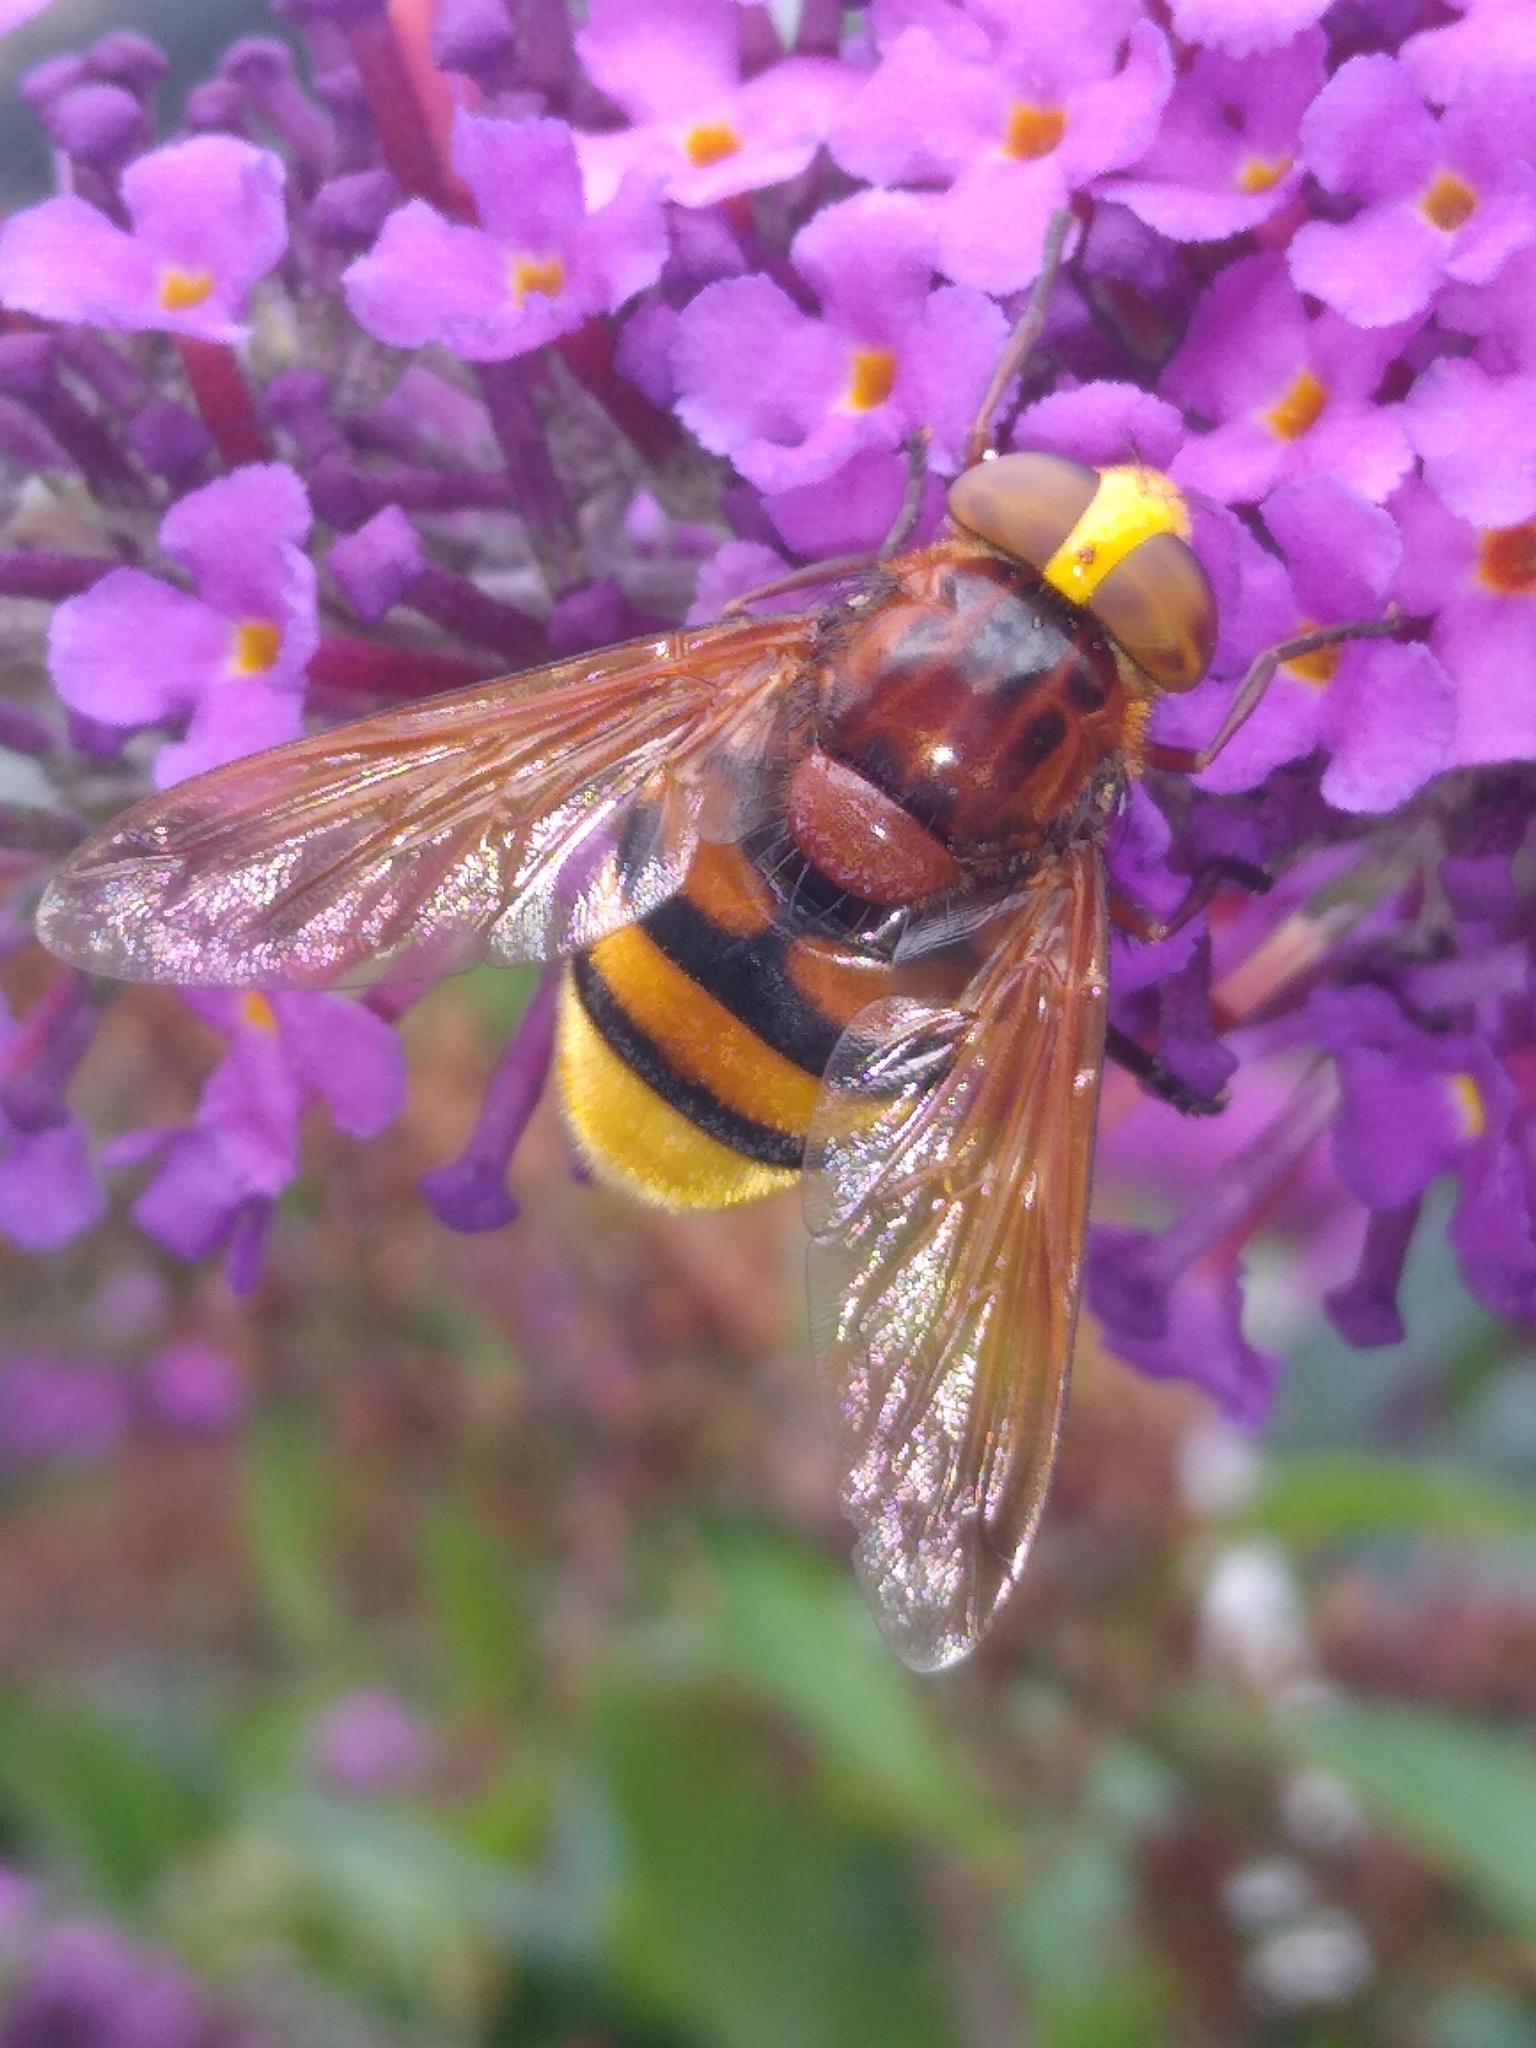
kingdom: Animalia
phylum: Arthropoda
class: Insecta
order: Diptera
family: Syrphidae
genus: Volucella
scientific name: Volucella zonaria
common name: Hornet hoverfly
